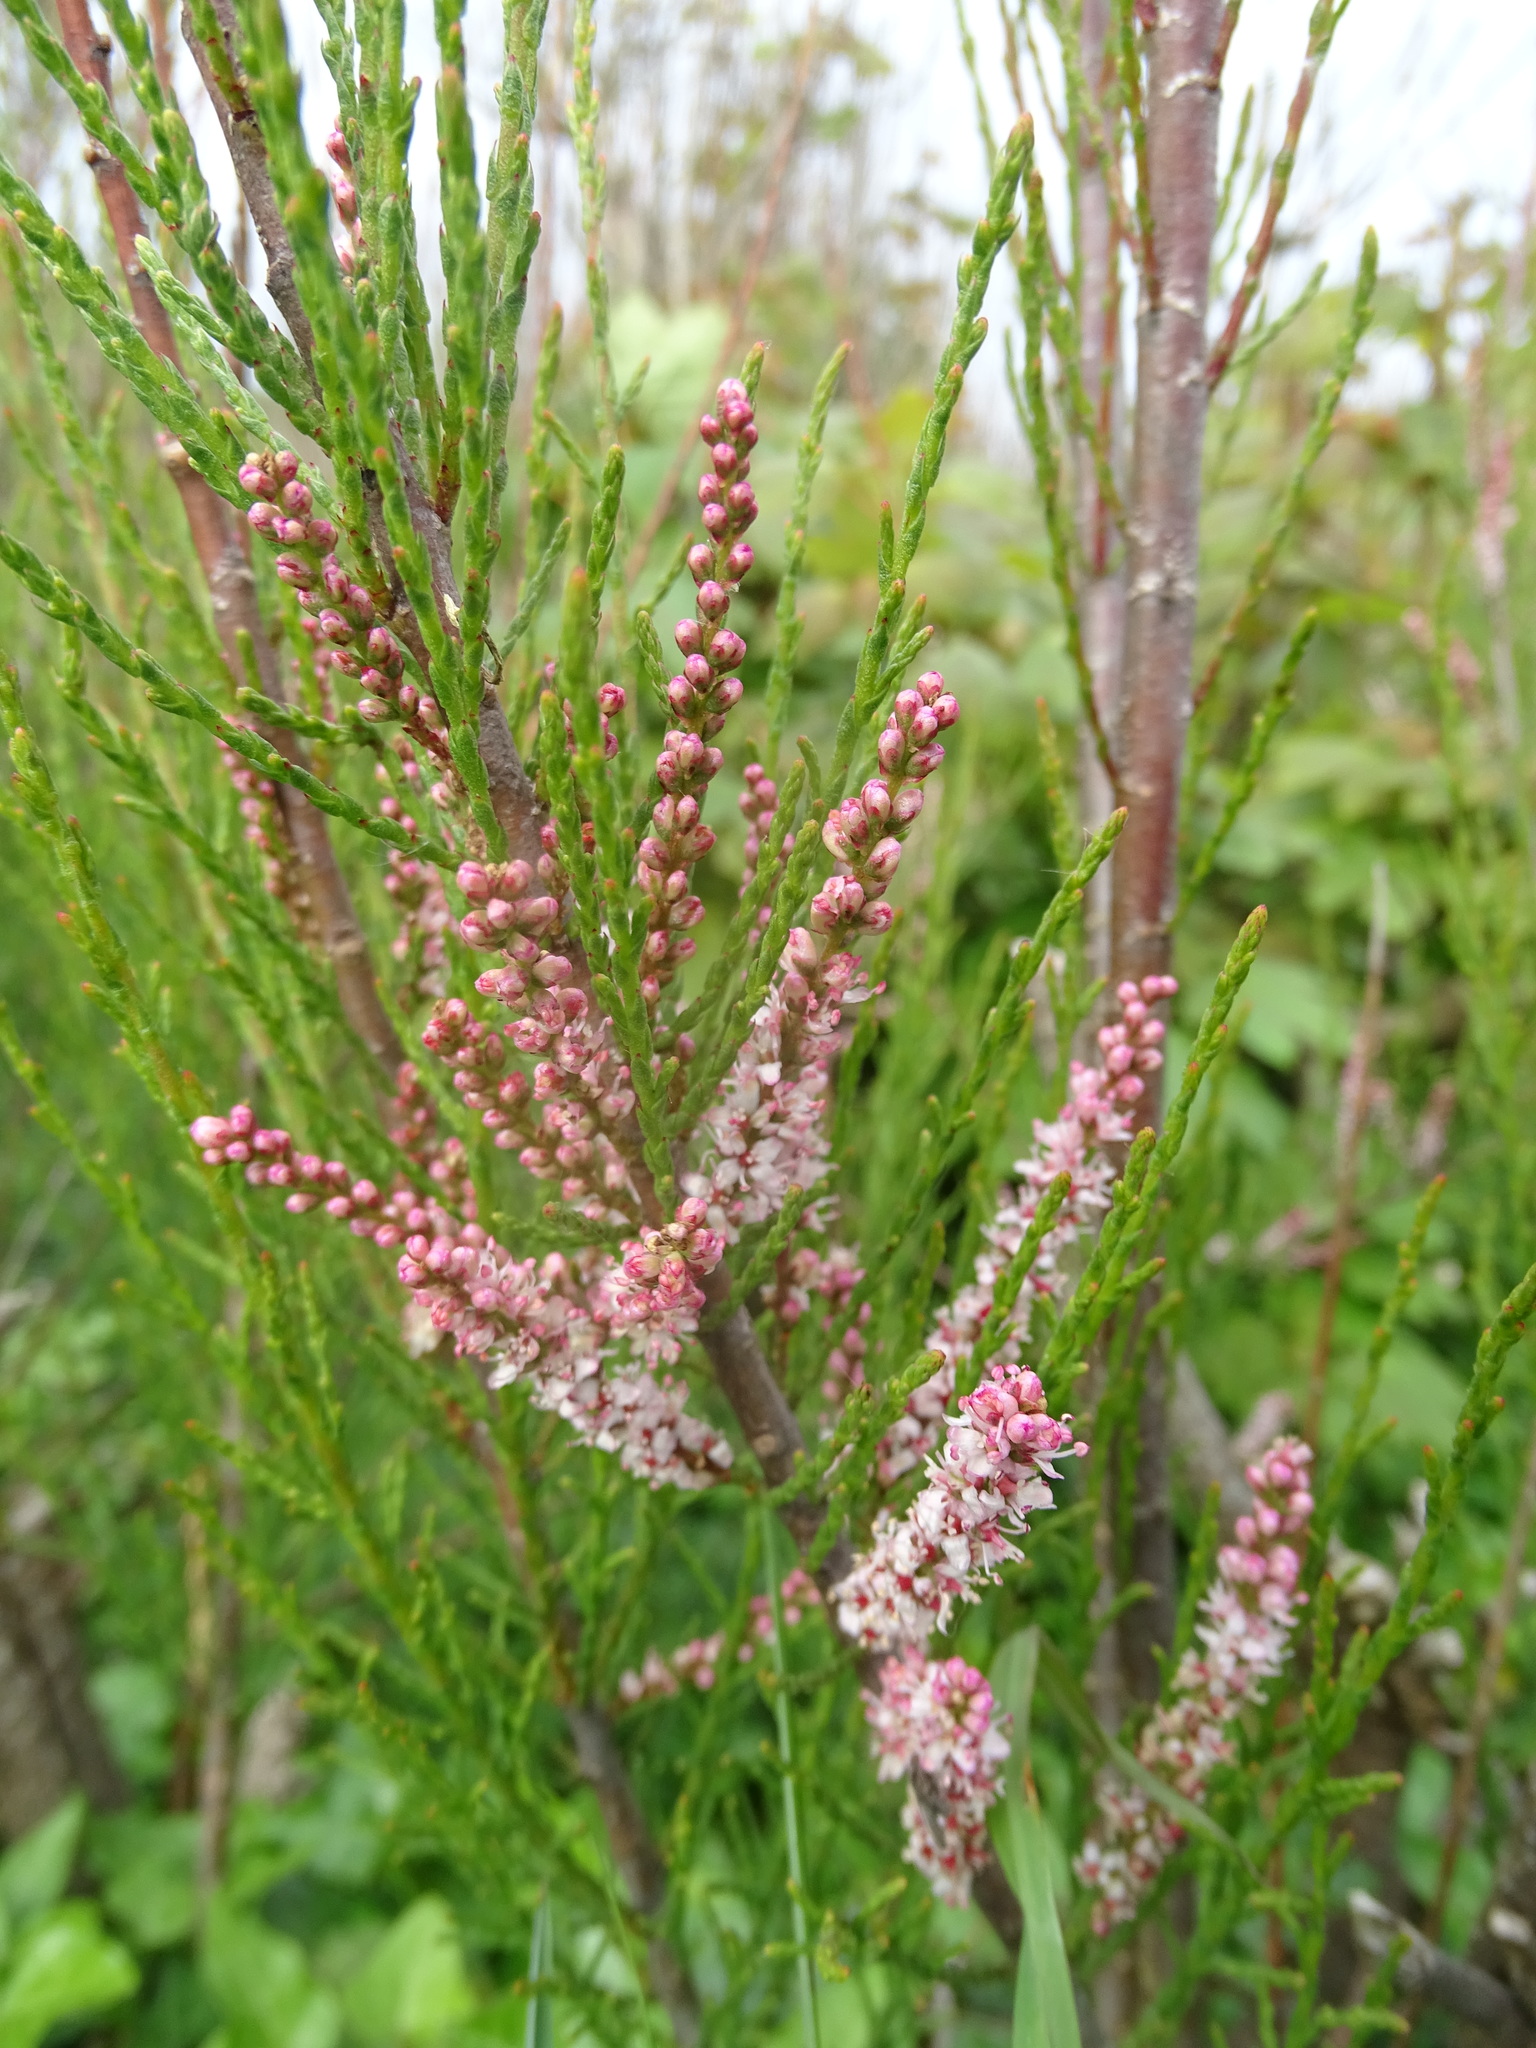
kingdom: Plantae
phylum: Tracheophyta
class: Magnoliopsida
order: Caryophyllales
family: Tamaricaceae
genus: Tamarix
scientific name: Tamarix gallica
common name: Tamarisk
